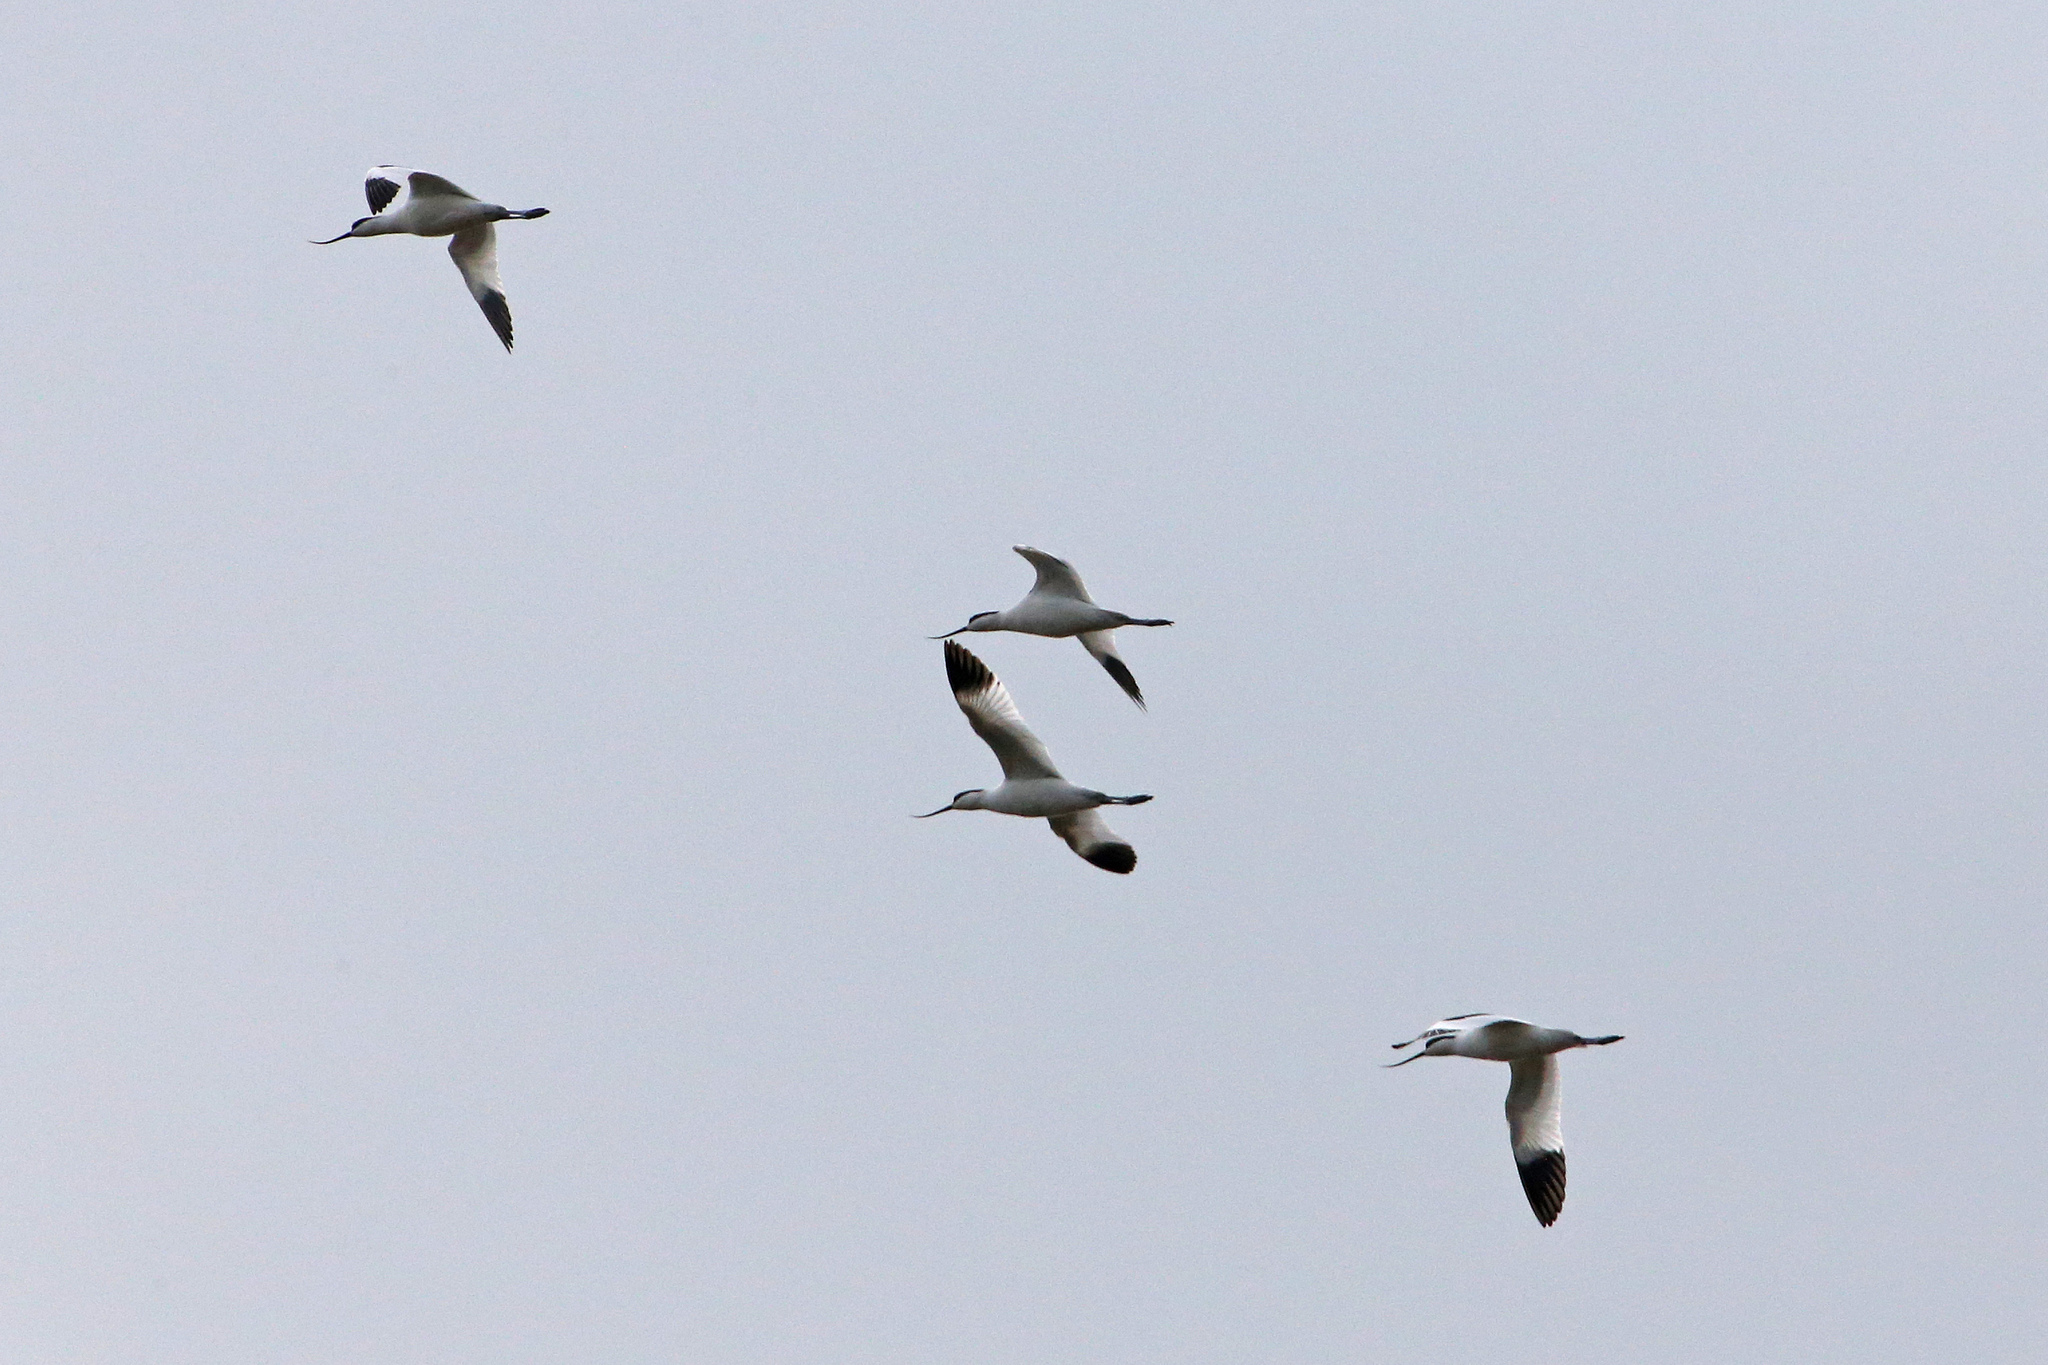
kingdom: Animalia
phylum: Chordata
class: Aves
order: Charadriiformes
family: Recurvirostridae
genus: Recurvirostra
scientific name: Recurvirostra avosetta
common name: Pied avocet
